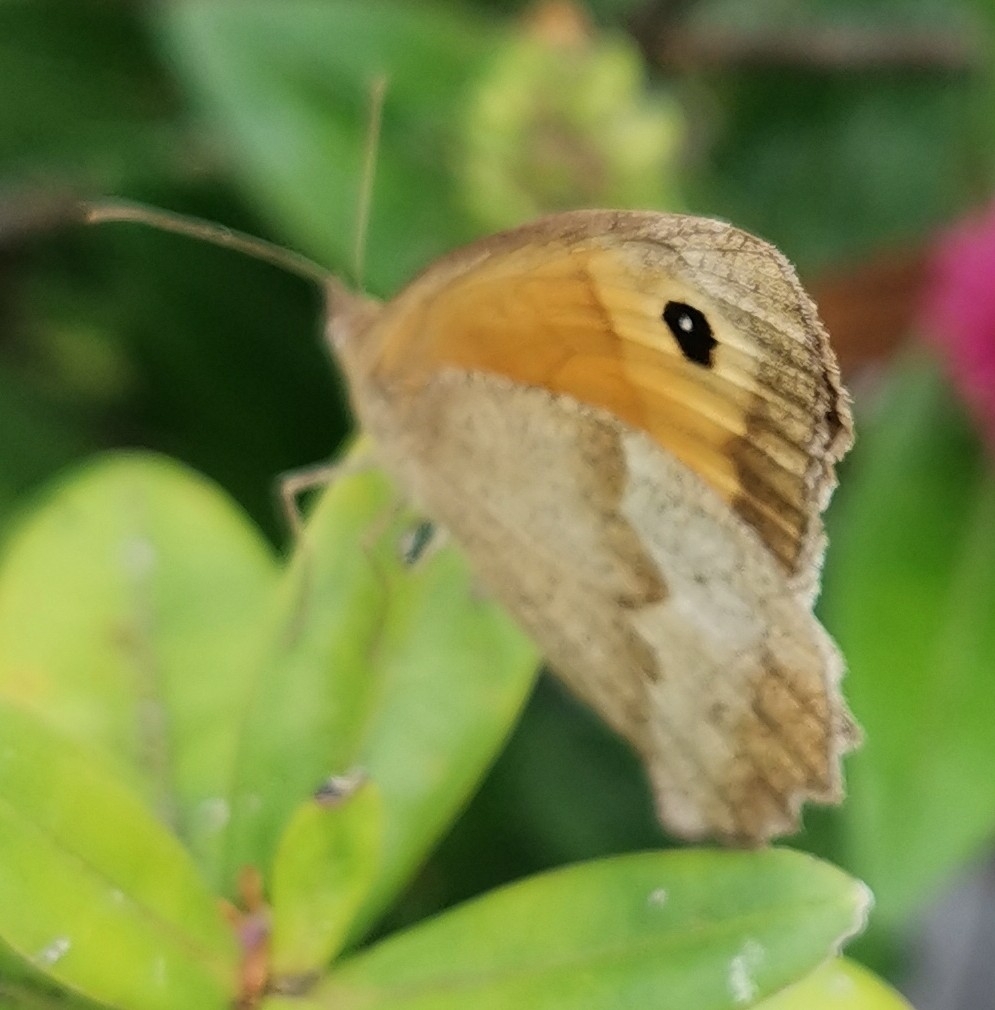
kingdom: Animalia
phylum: Arthropoda
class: Insecta
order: Lepidoptera
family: Nymphalidae
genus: Maniola
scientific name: Maniola jurtina
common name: Meadow brown
